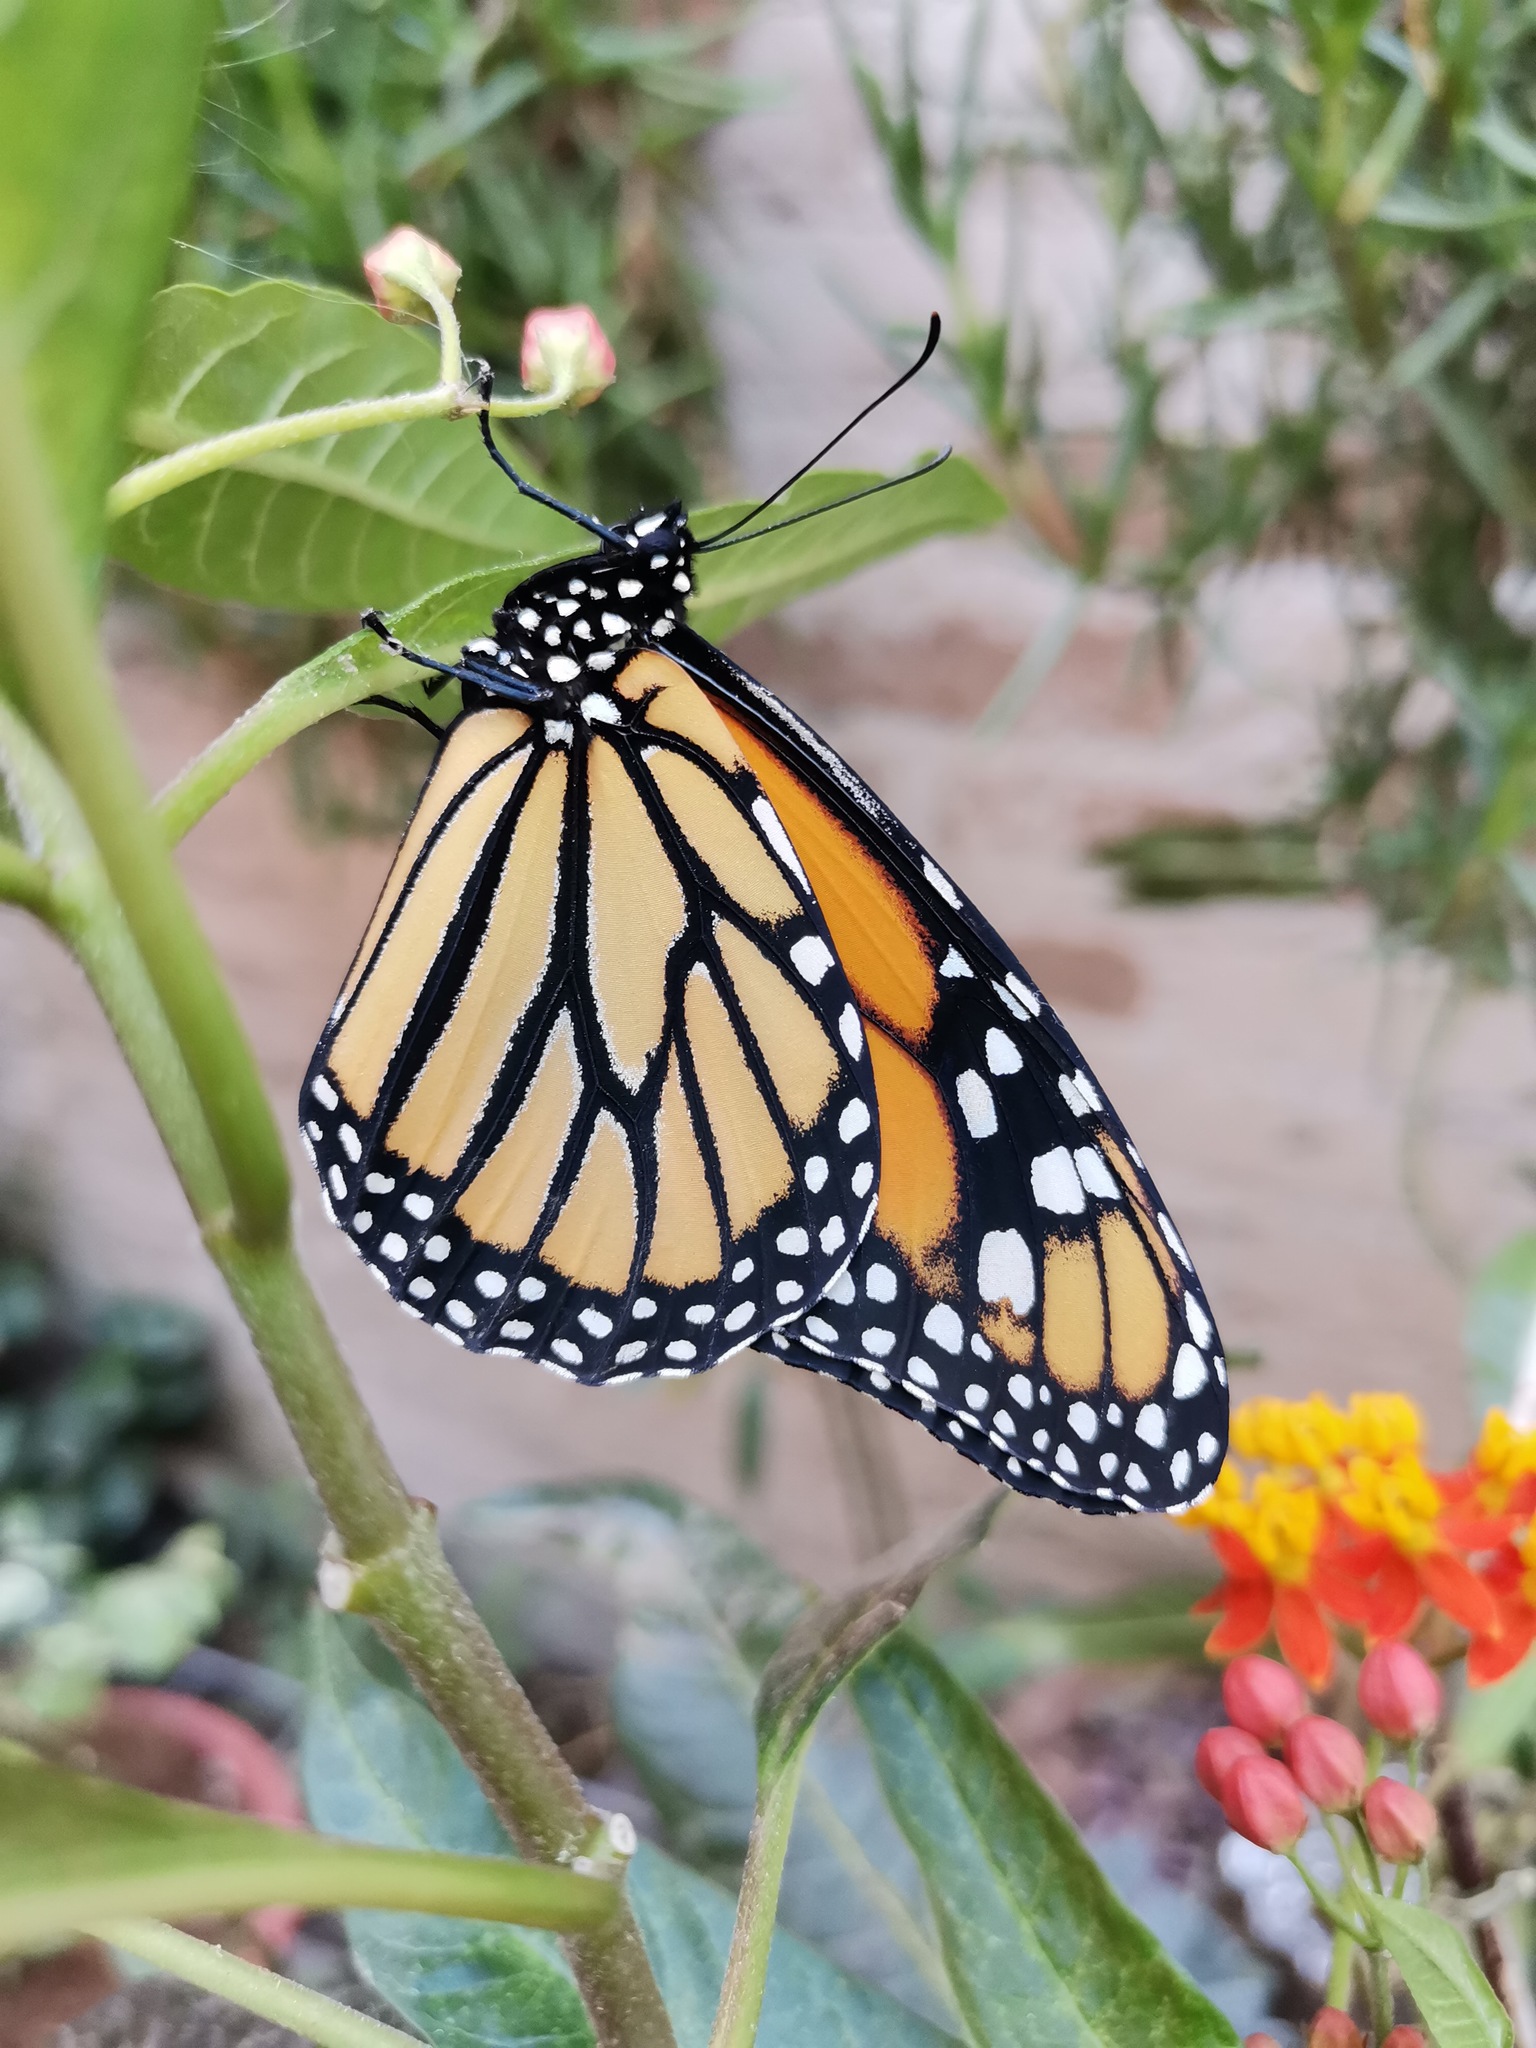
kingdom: Animalia
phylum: Arthropoda
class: Insecta
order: Lepidoptera
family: Nymphalidae
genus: Danaus
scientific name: Danaus plexippus
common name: Monarch
